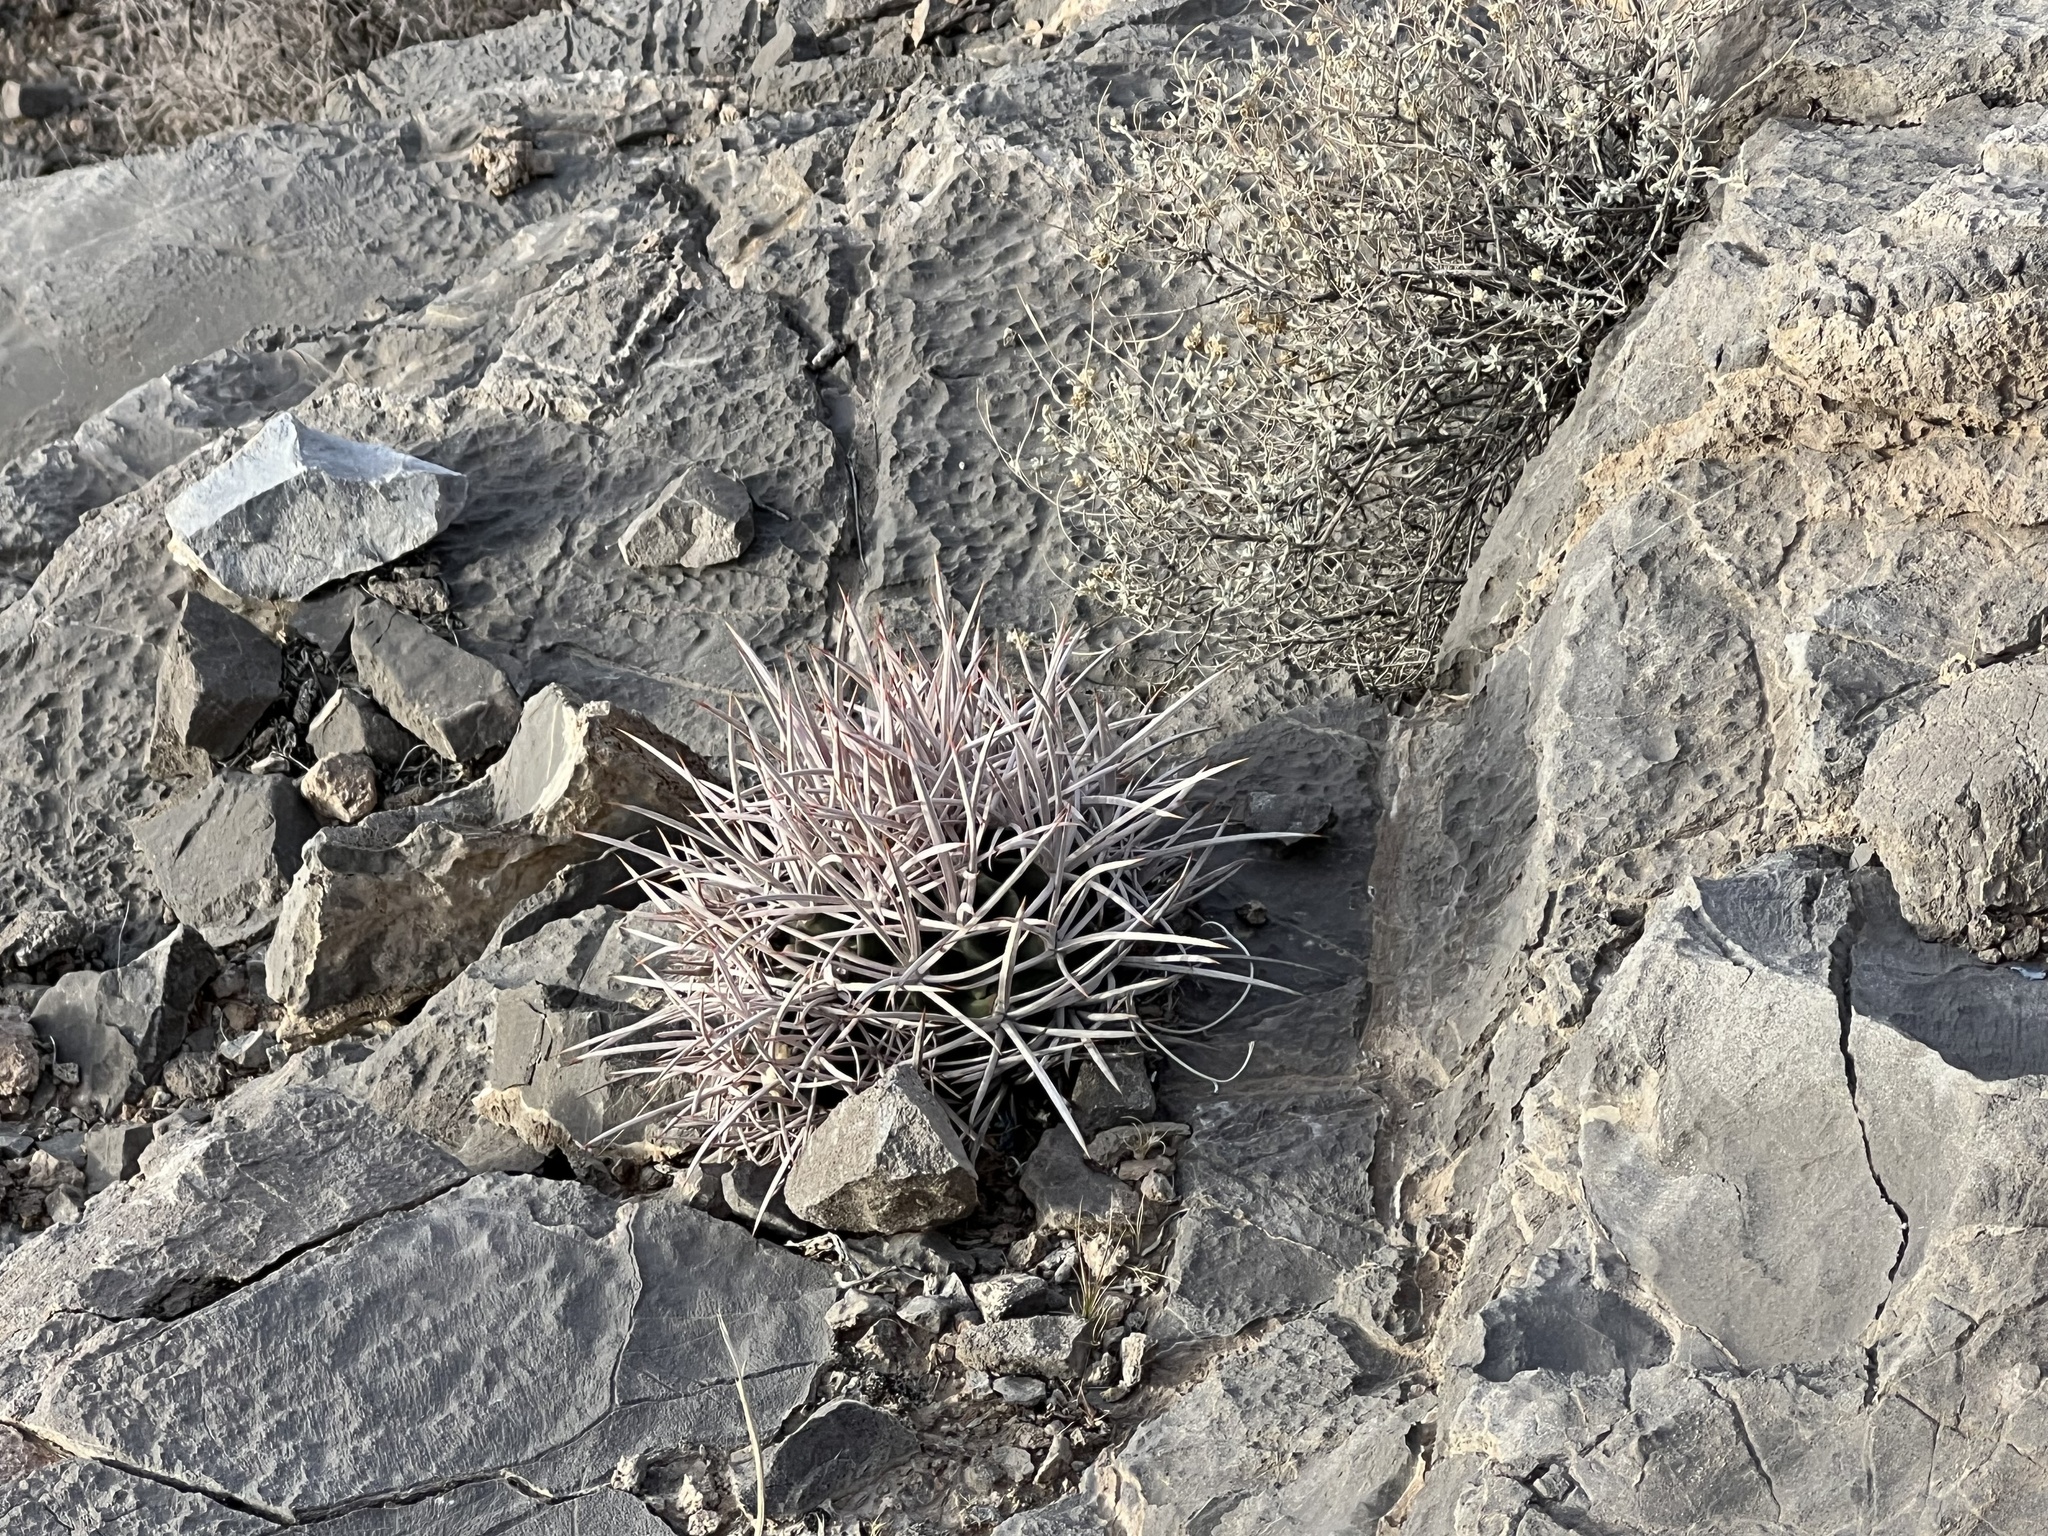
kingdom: Plantae
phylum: Tracheophyta
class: Magnoliopsida
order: Caryophyllales
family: Cactaceae
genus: Echinocactus
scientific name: Echinocactus polycephalus
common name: Cottontop cactus
